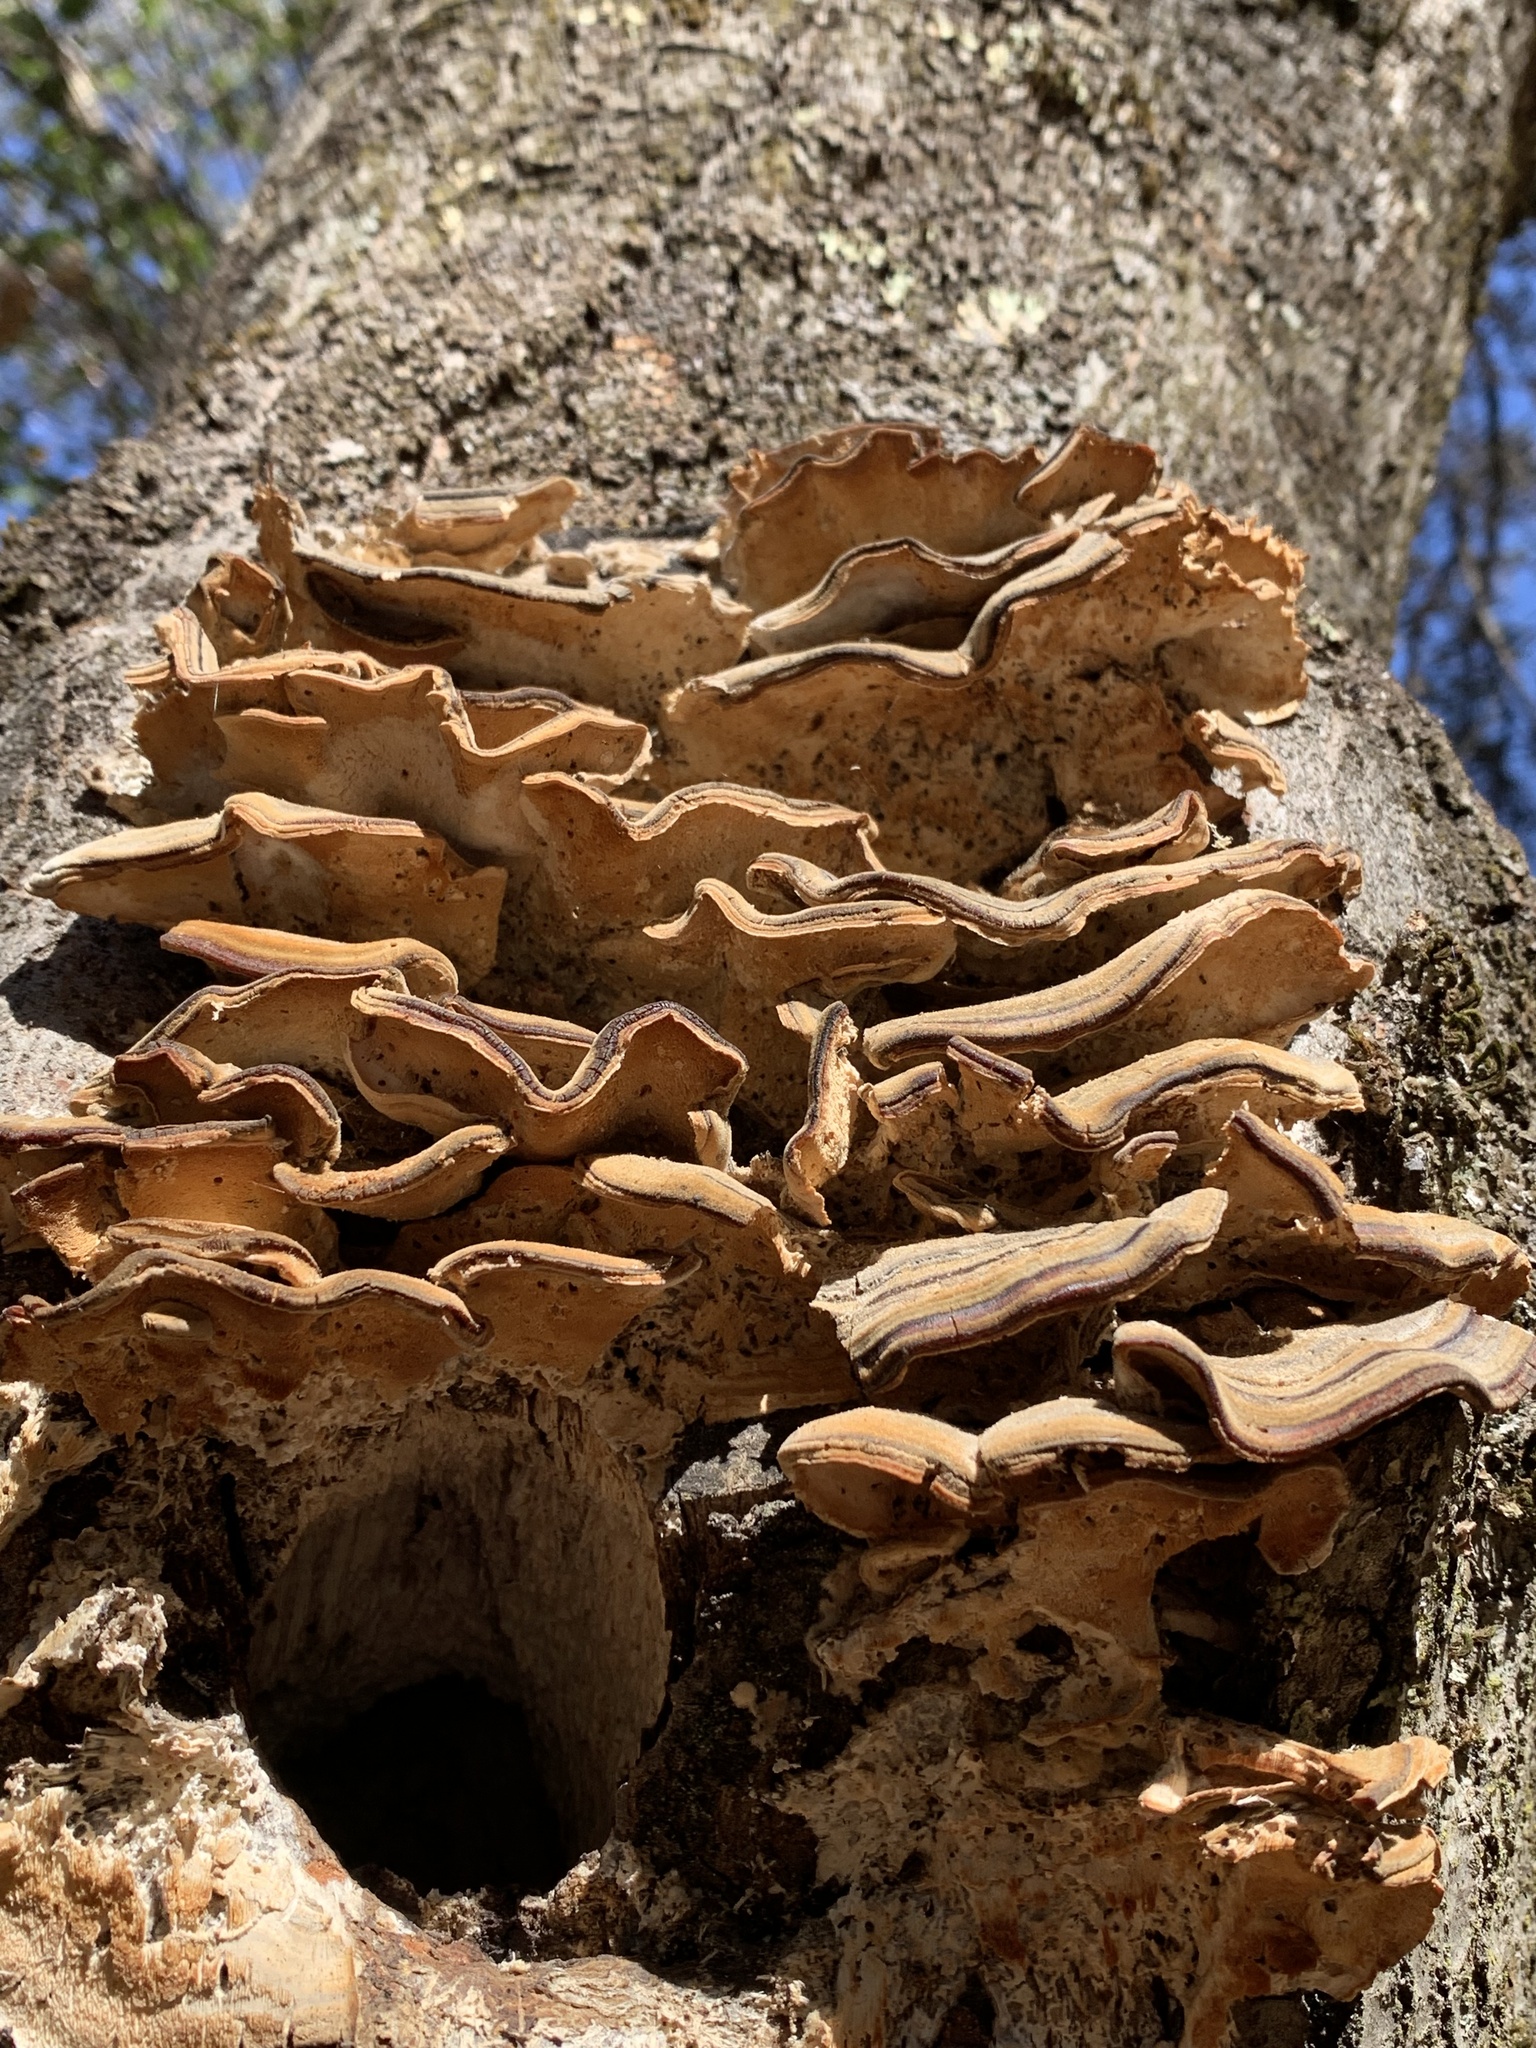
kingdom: Fungi
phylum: Basidiomycota
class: Agaricomycetes
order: Polyporales
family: Polyporaceae
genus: Trametes
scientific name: Trametes versicolor
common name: Turkeytail
